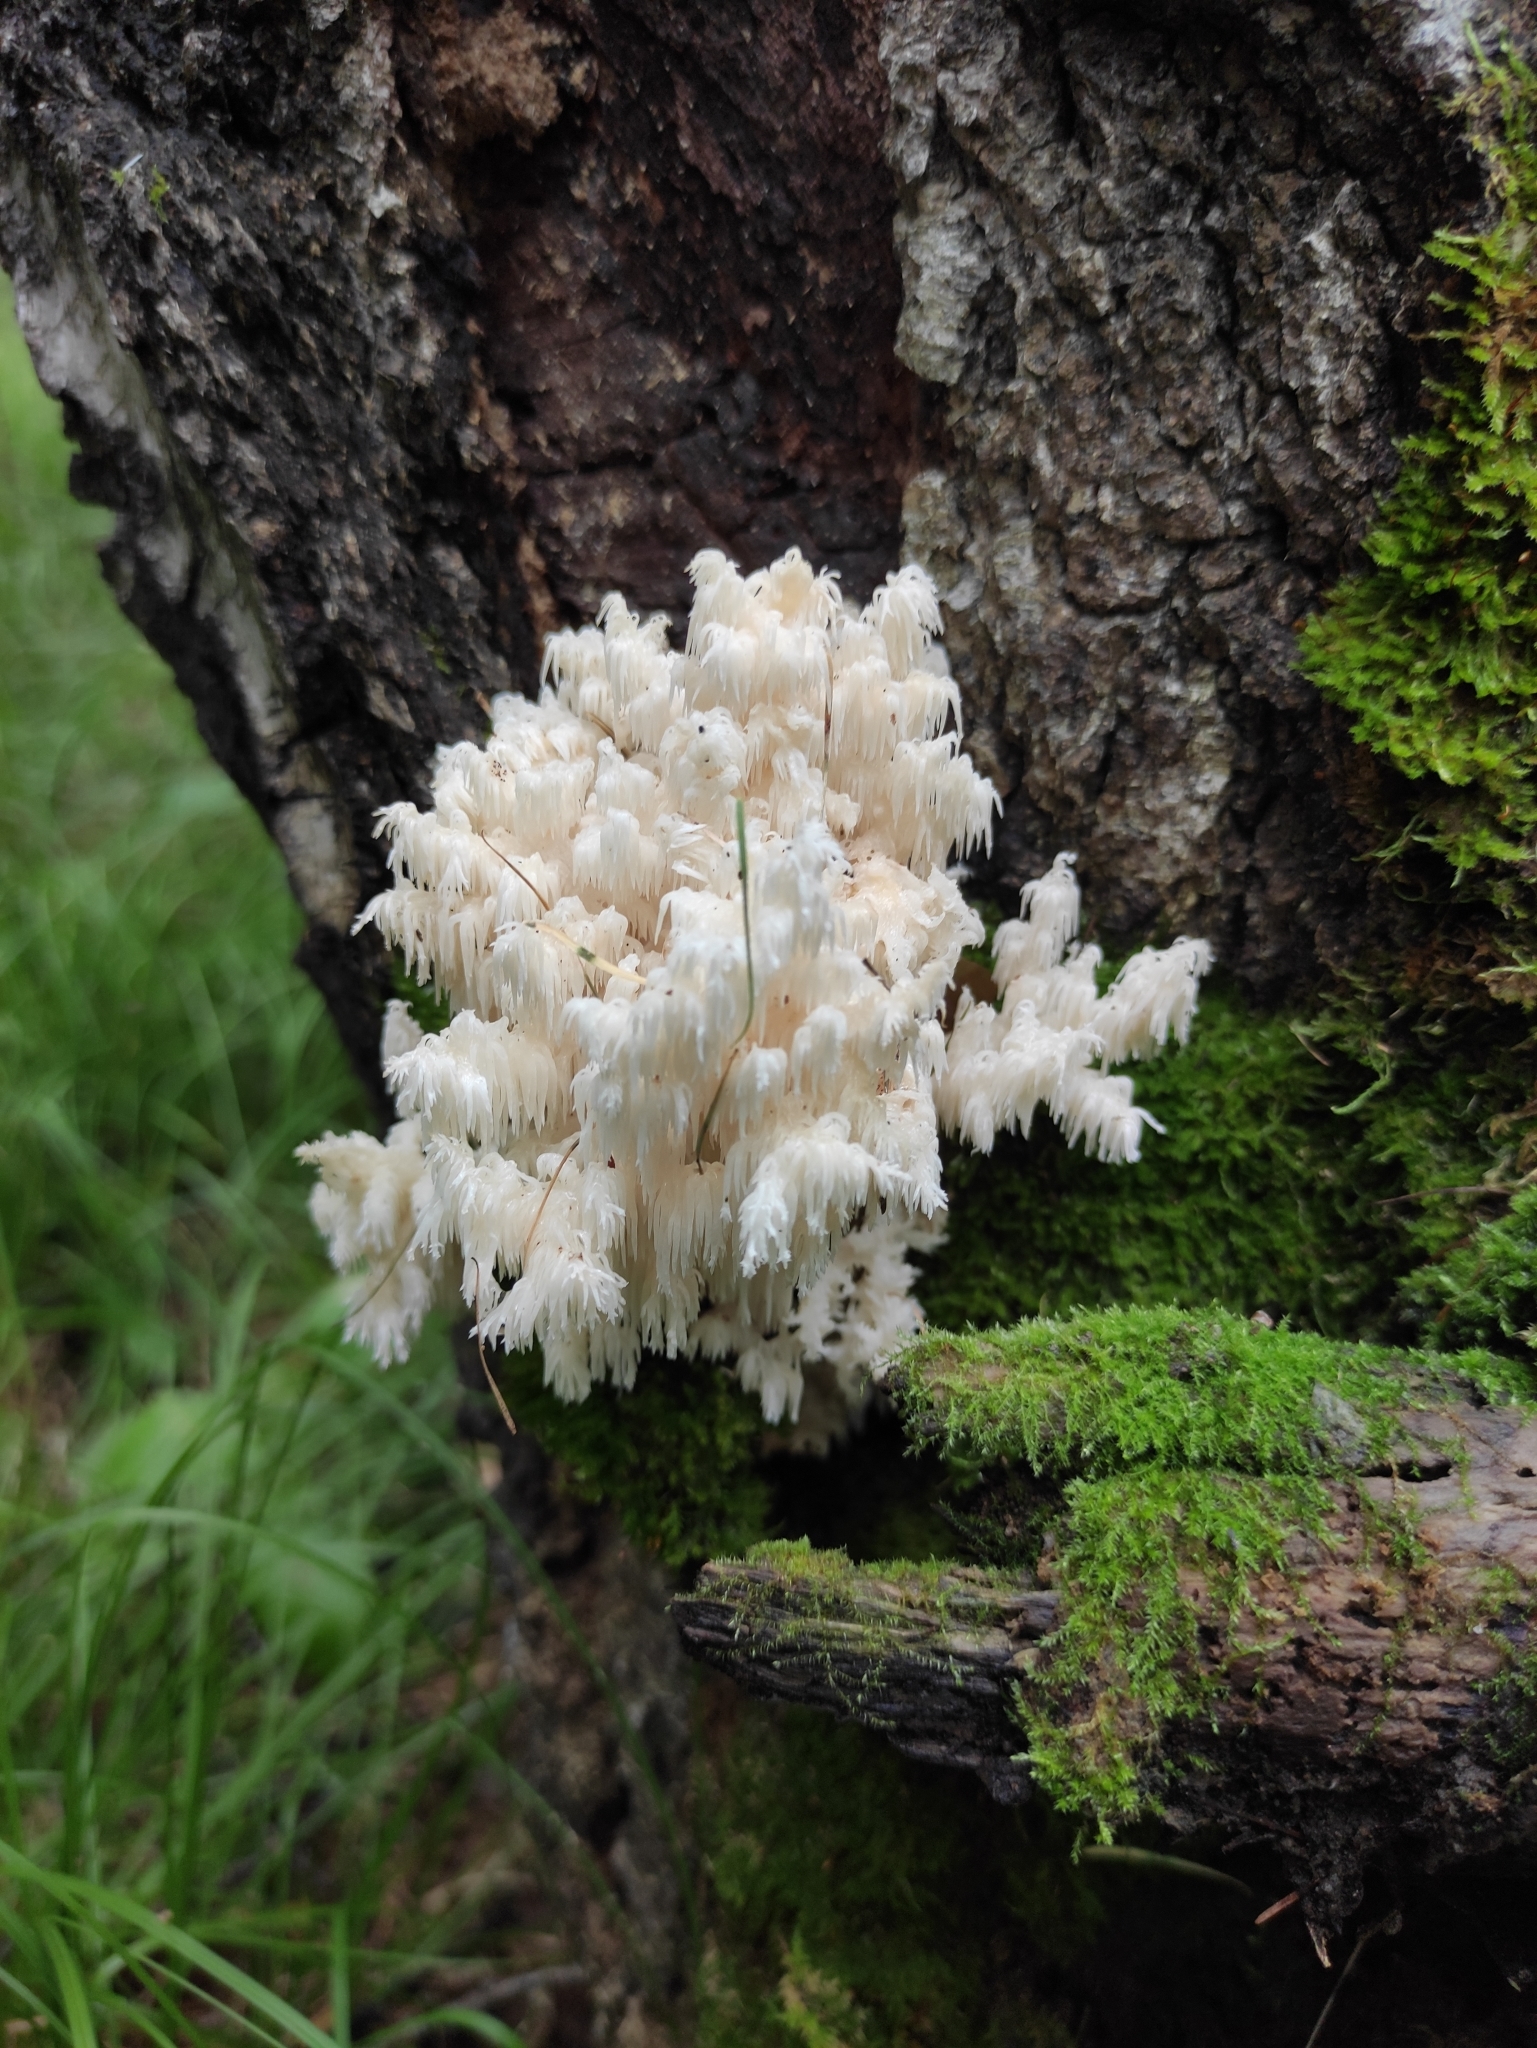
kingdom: Fungi
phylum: Basidiomycota
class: Agaricomycetes
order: Russulales
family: Hericiaceae
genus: Hericium
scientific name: Hericium coralloides
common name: Coral tooth
